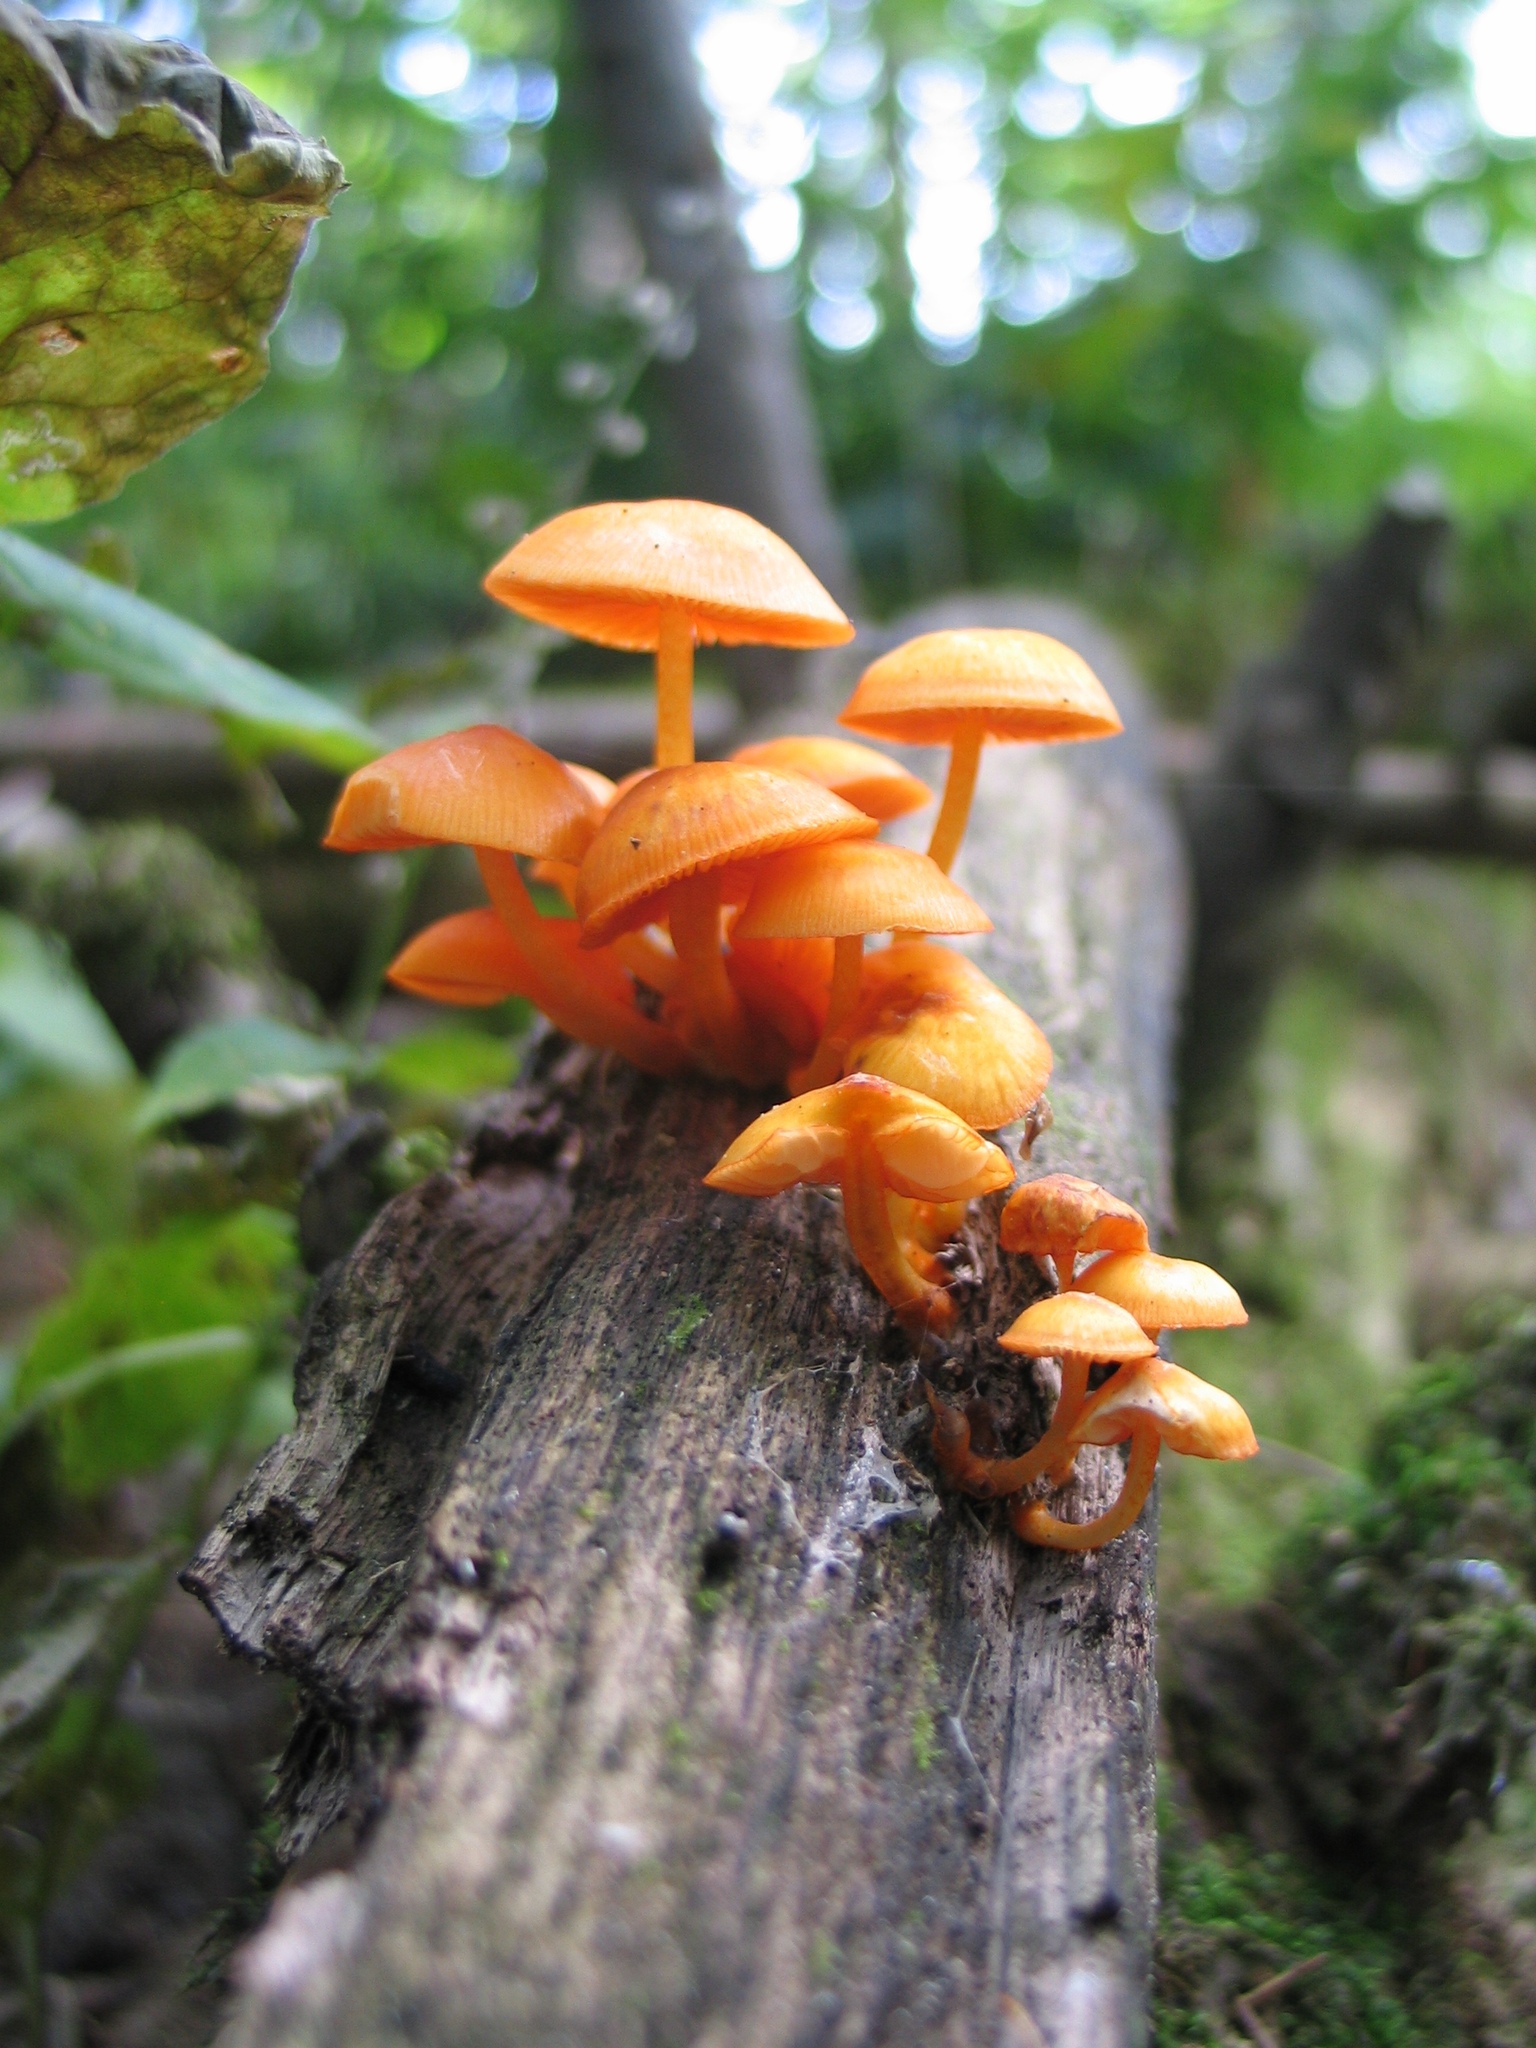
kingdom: Fungi
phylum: Basidiomycota
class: Agaricomycetes
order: Agaricales
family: Mycenaceae
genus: Mycena
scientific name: Mycena leaiana
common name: Orange mycena
